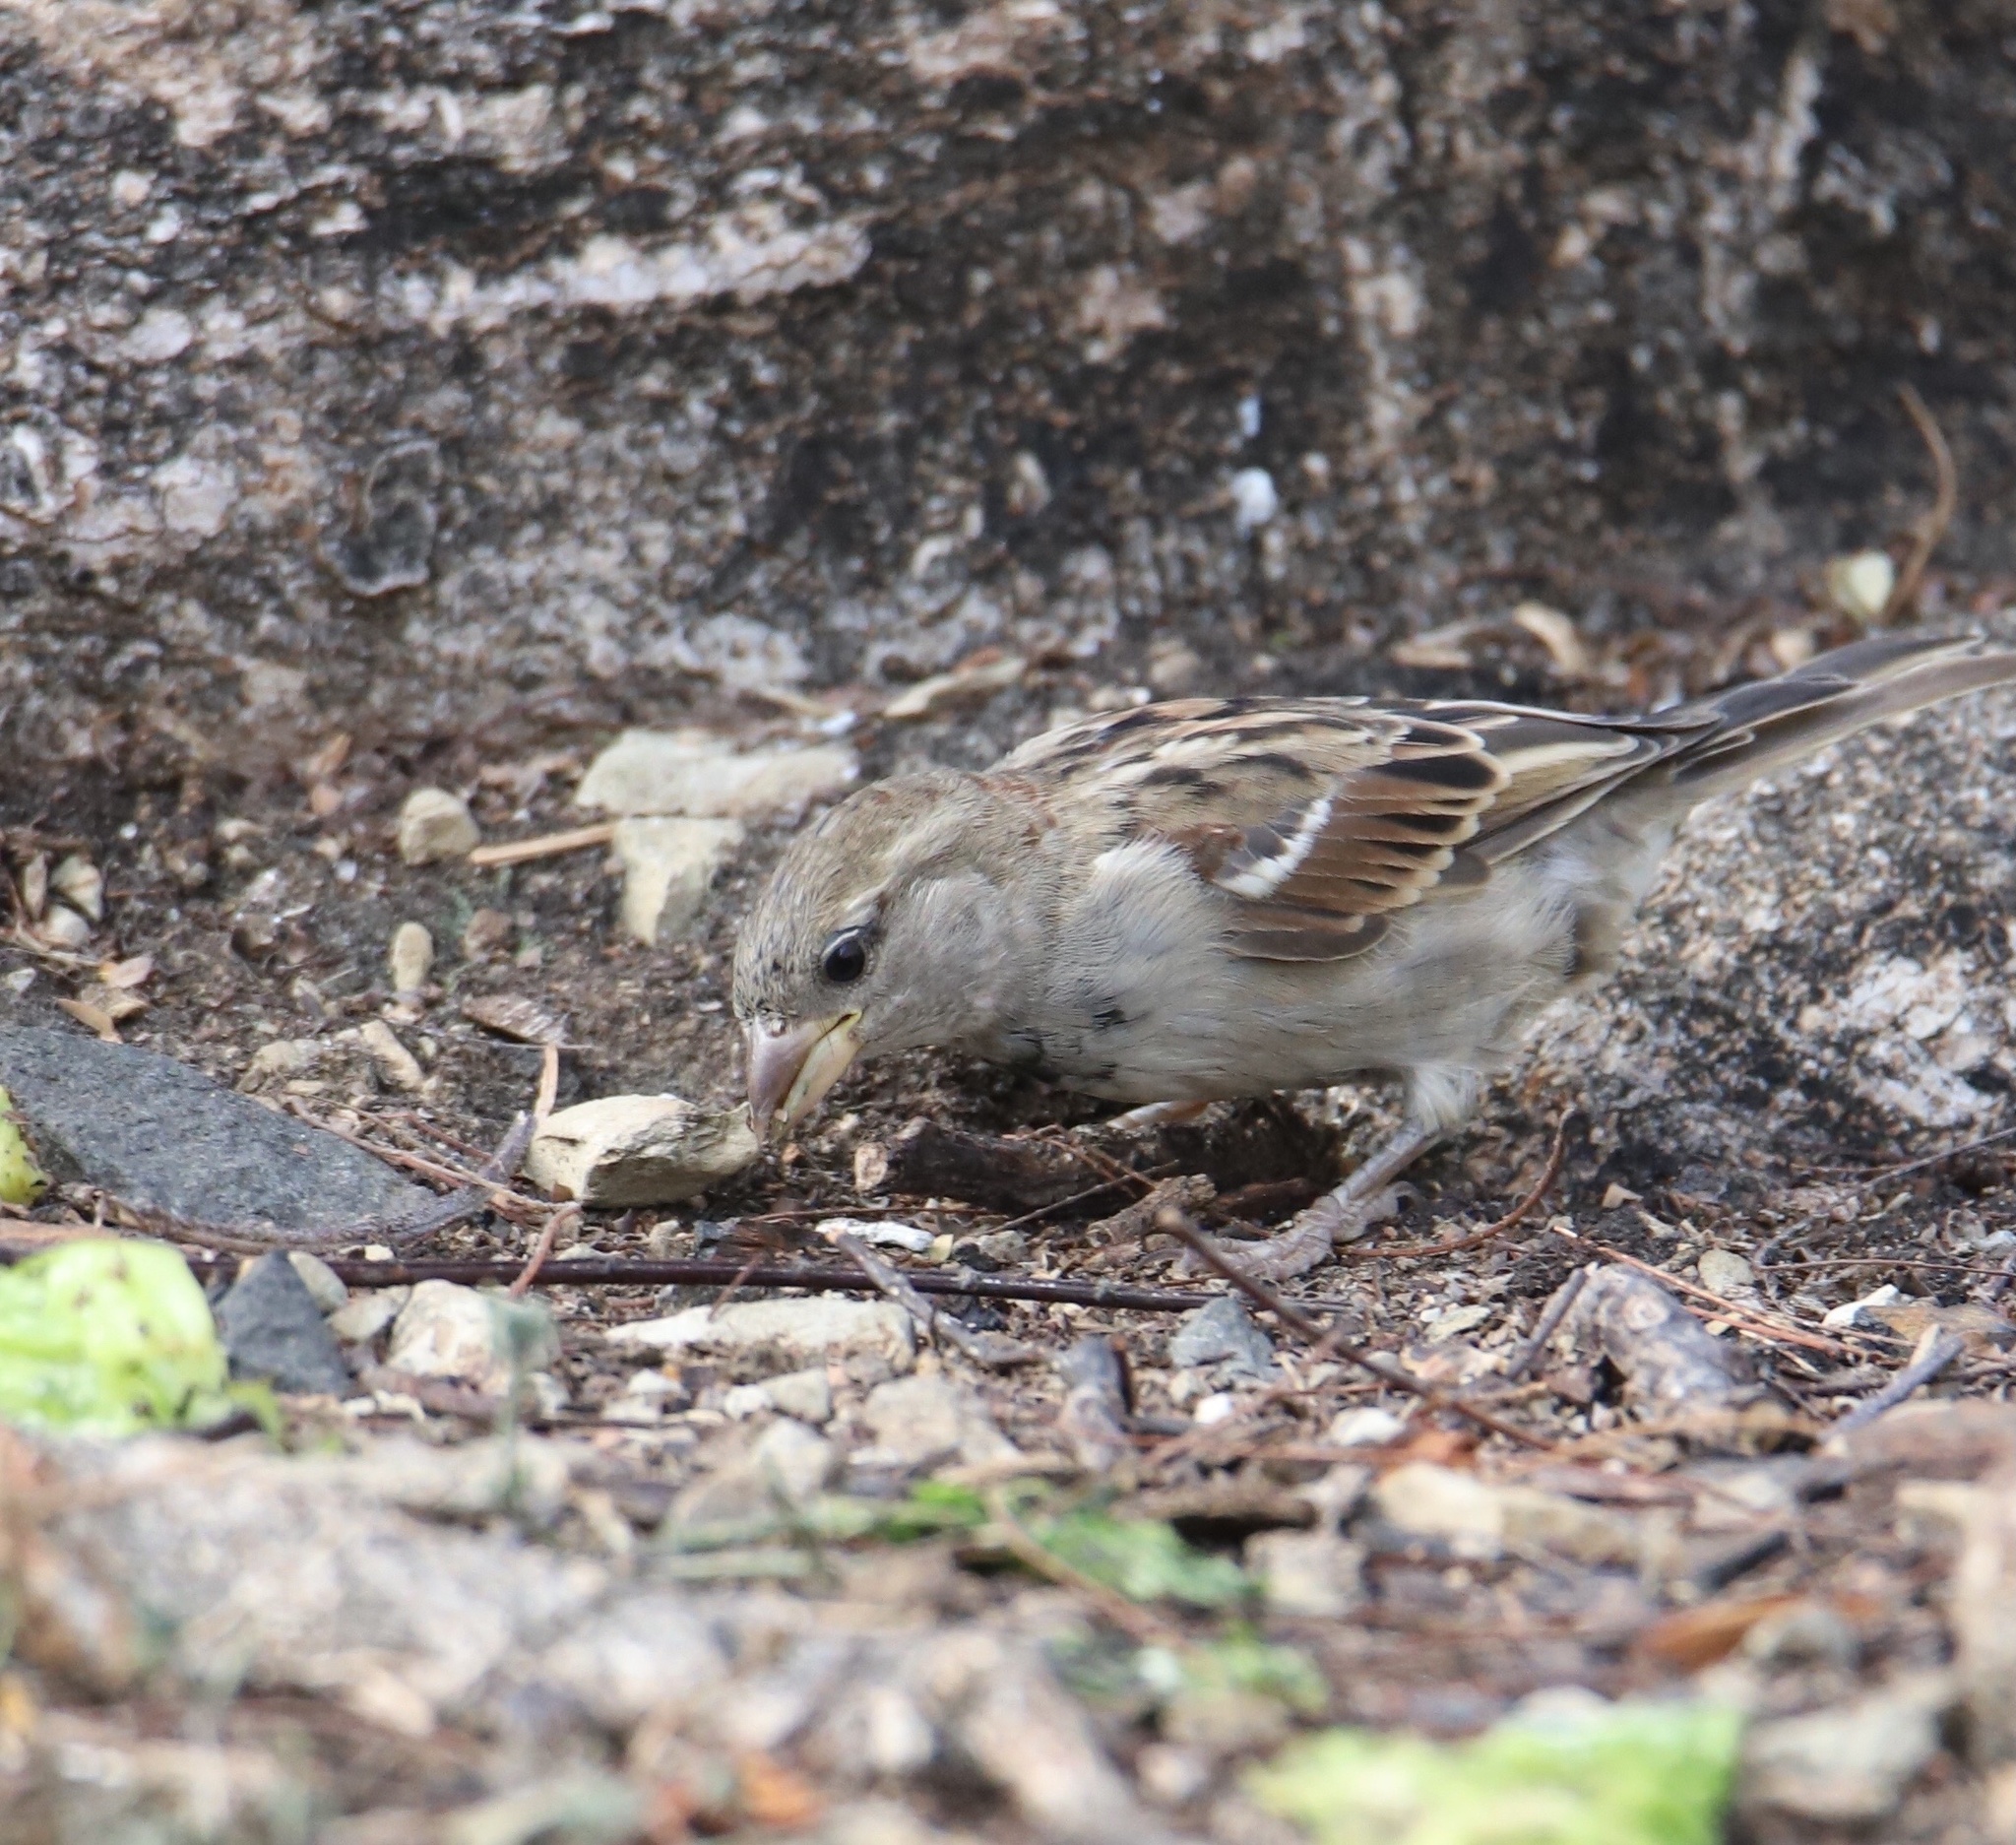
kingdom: Animalia
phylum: Chordata
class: Aves
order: Passeriformes
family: Passeridae
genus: Passer
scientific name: Passer domesticus
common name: House sparrow
